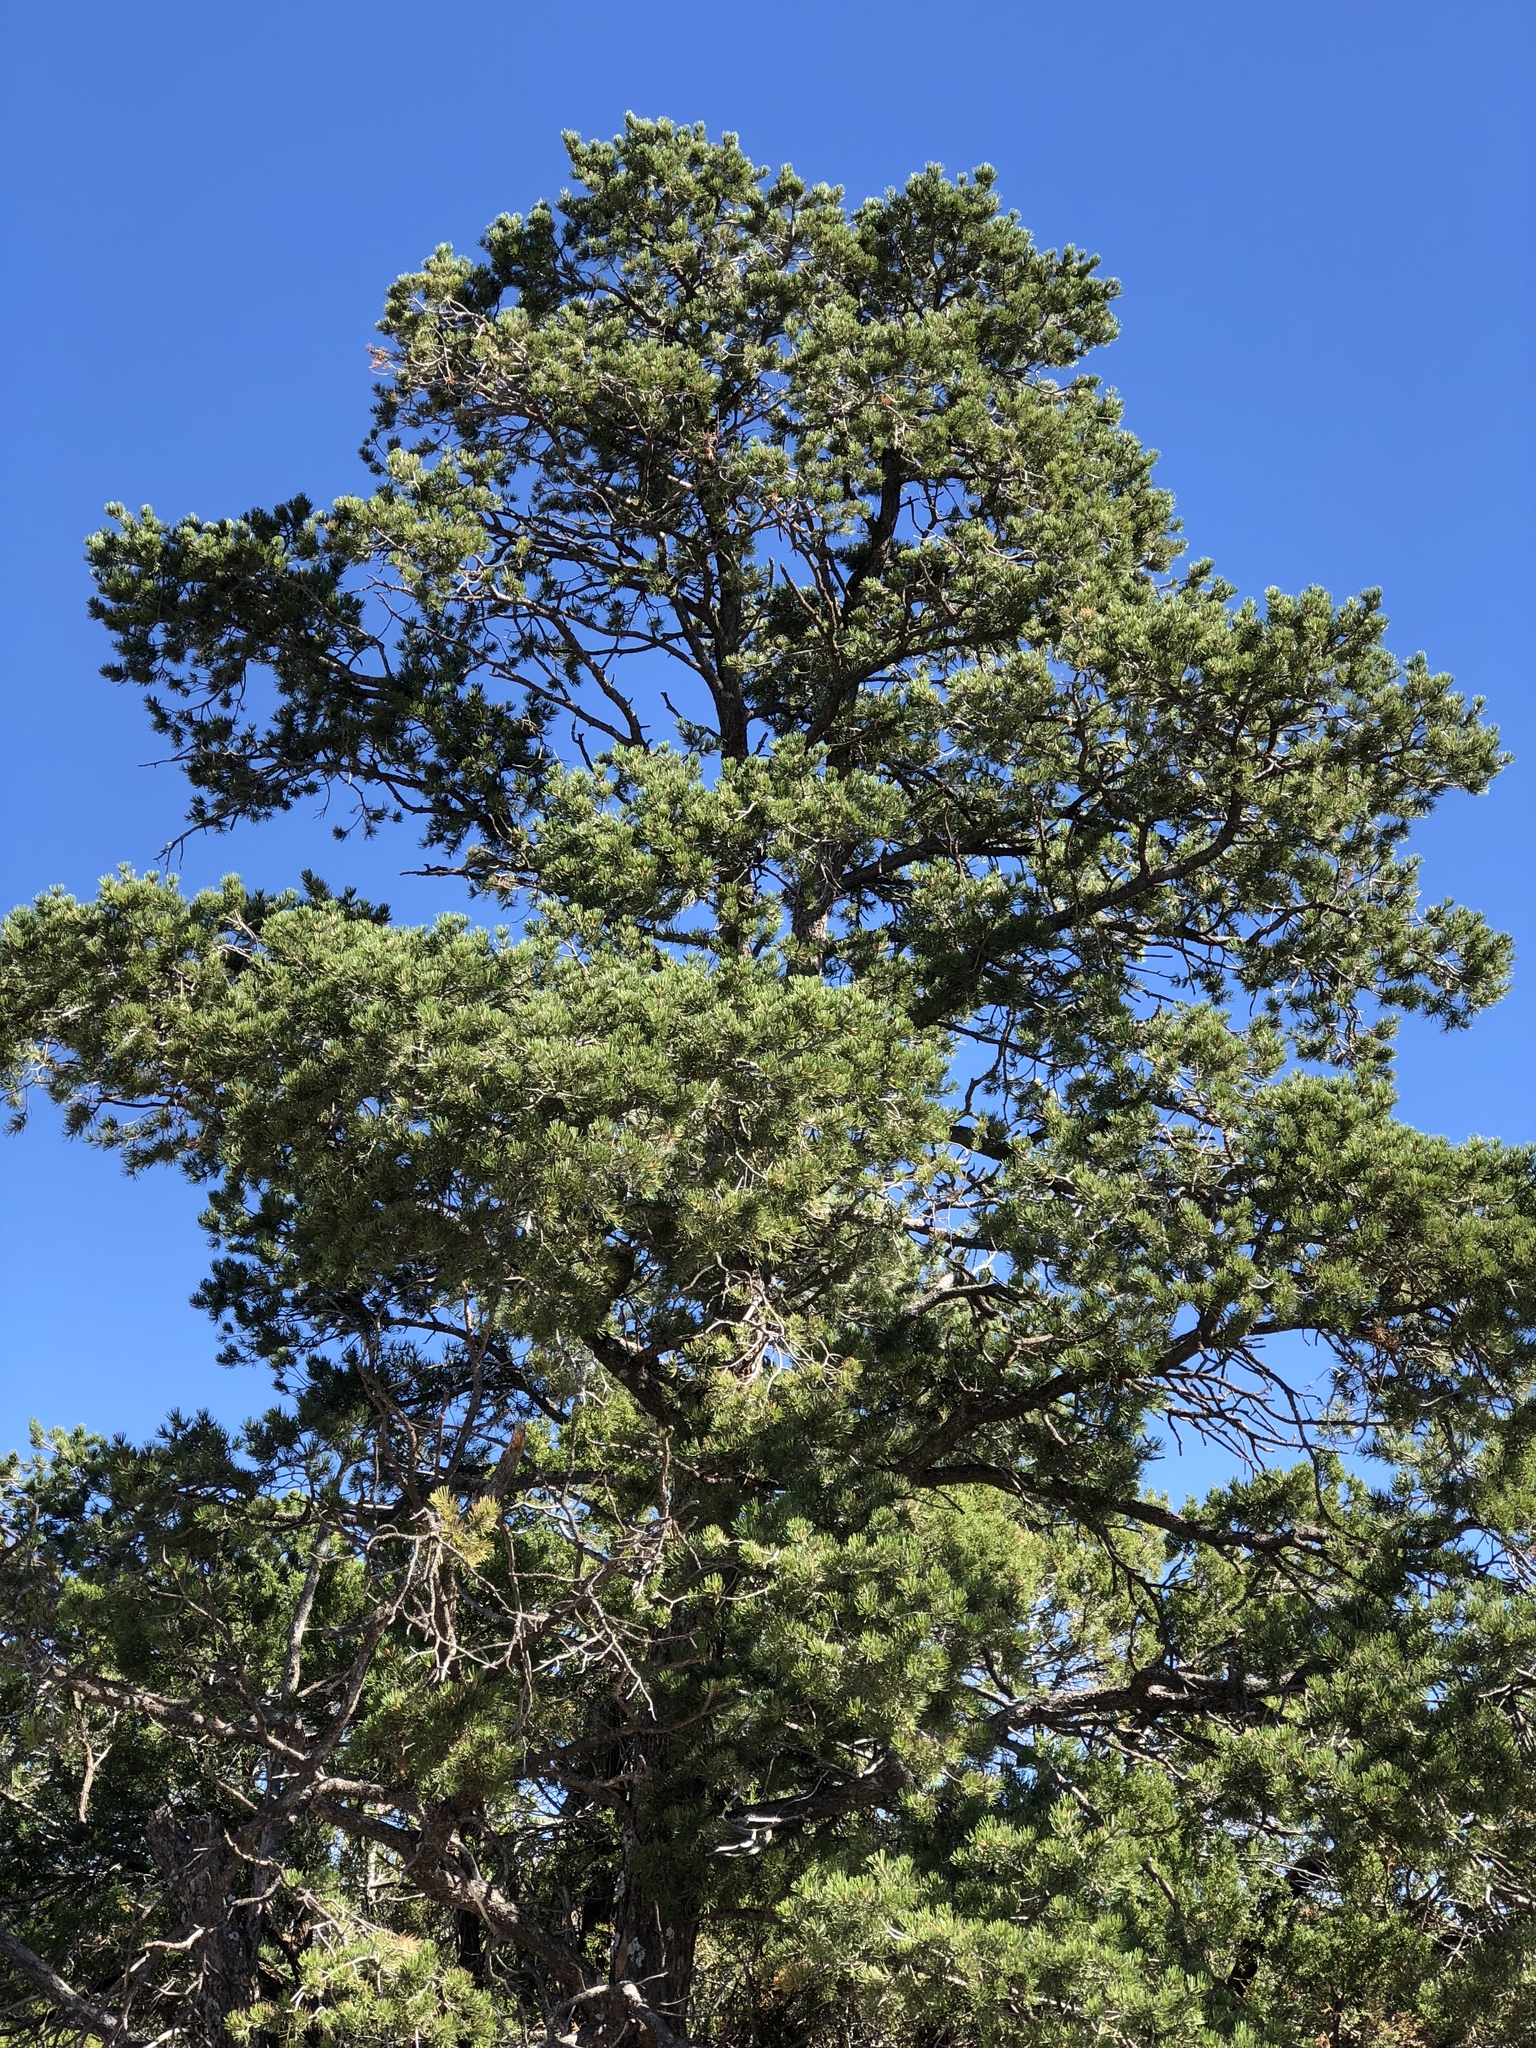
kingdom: Plantae
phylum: Tracheophyta
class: Pinopsida
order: Pinales
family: Pinaceae
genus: Pinus
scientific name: Pinus edulis
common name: Colorado pinyon
